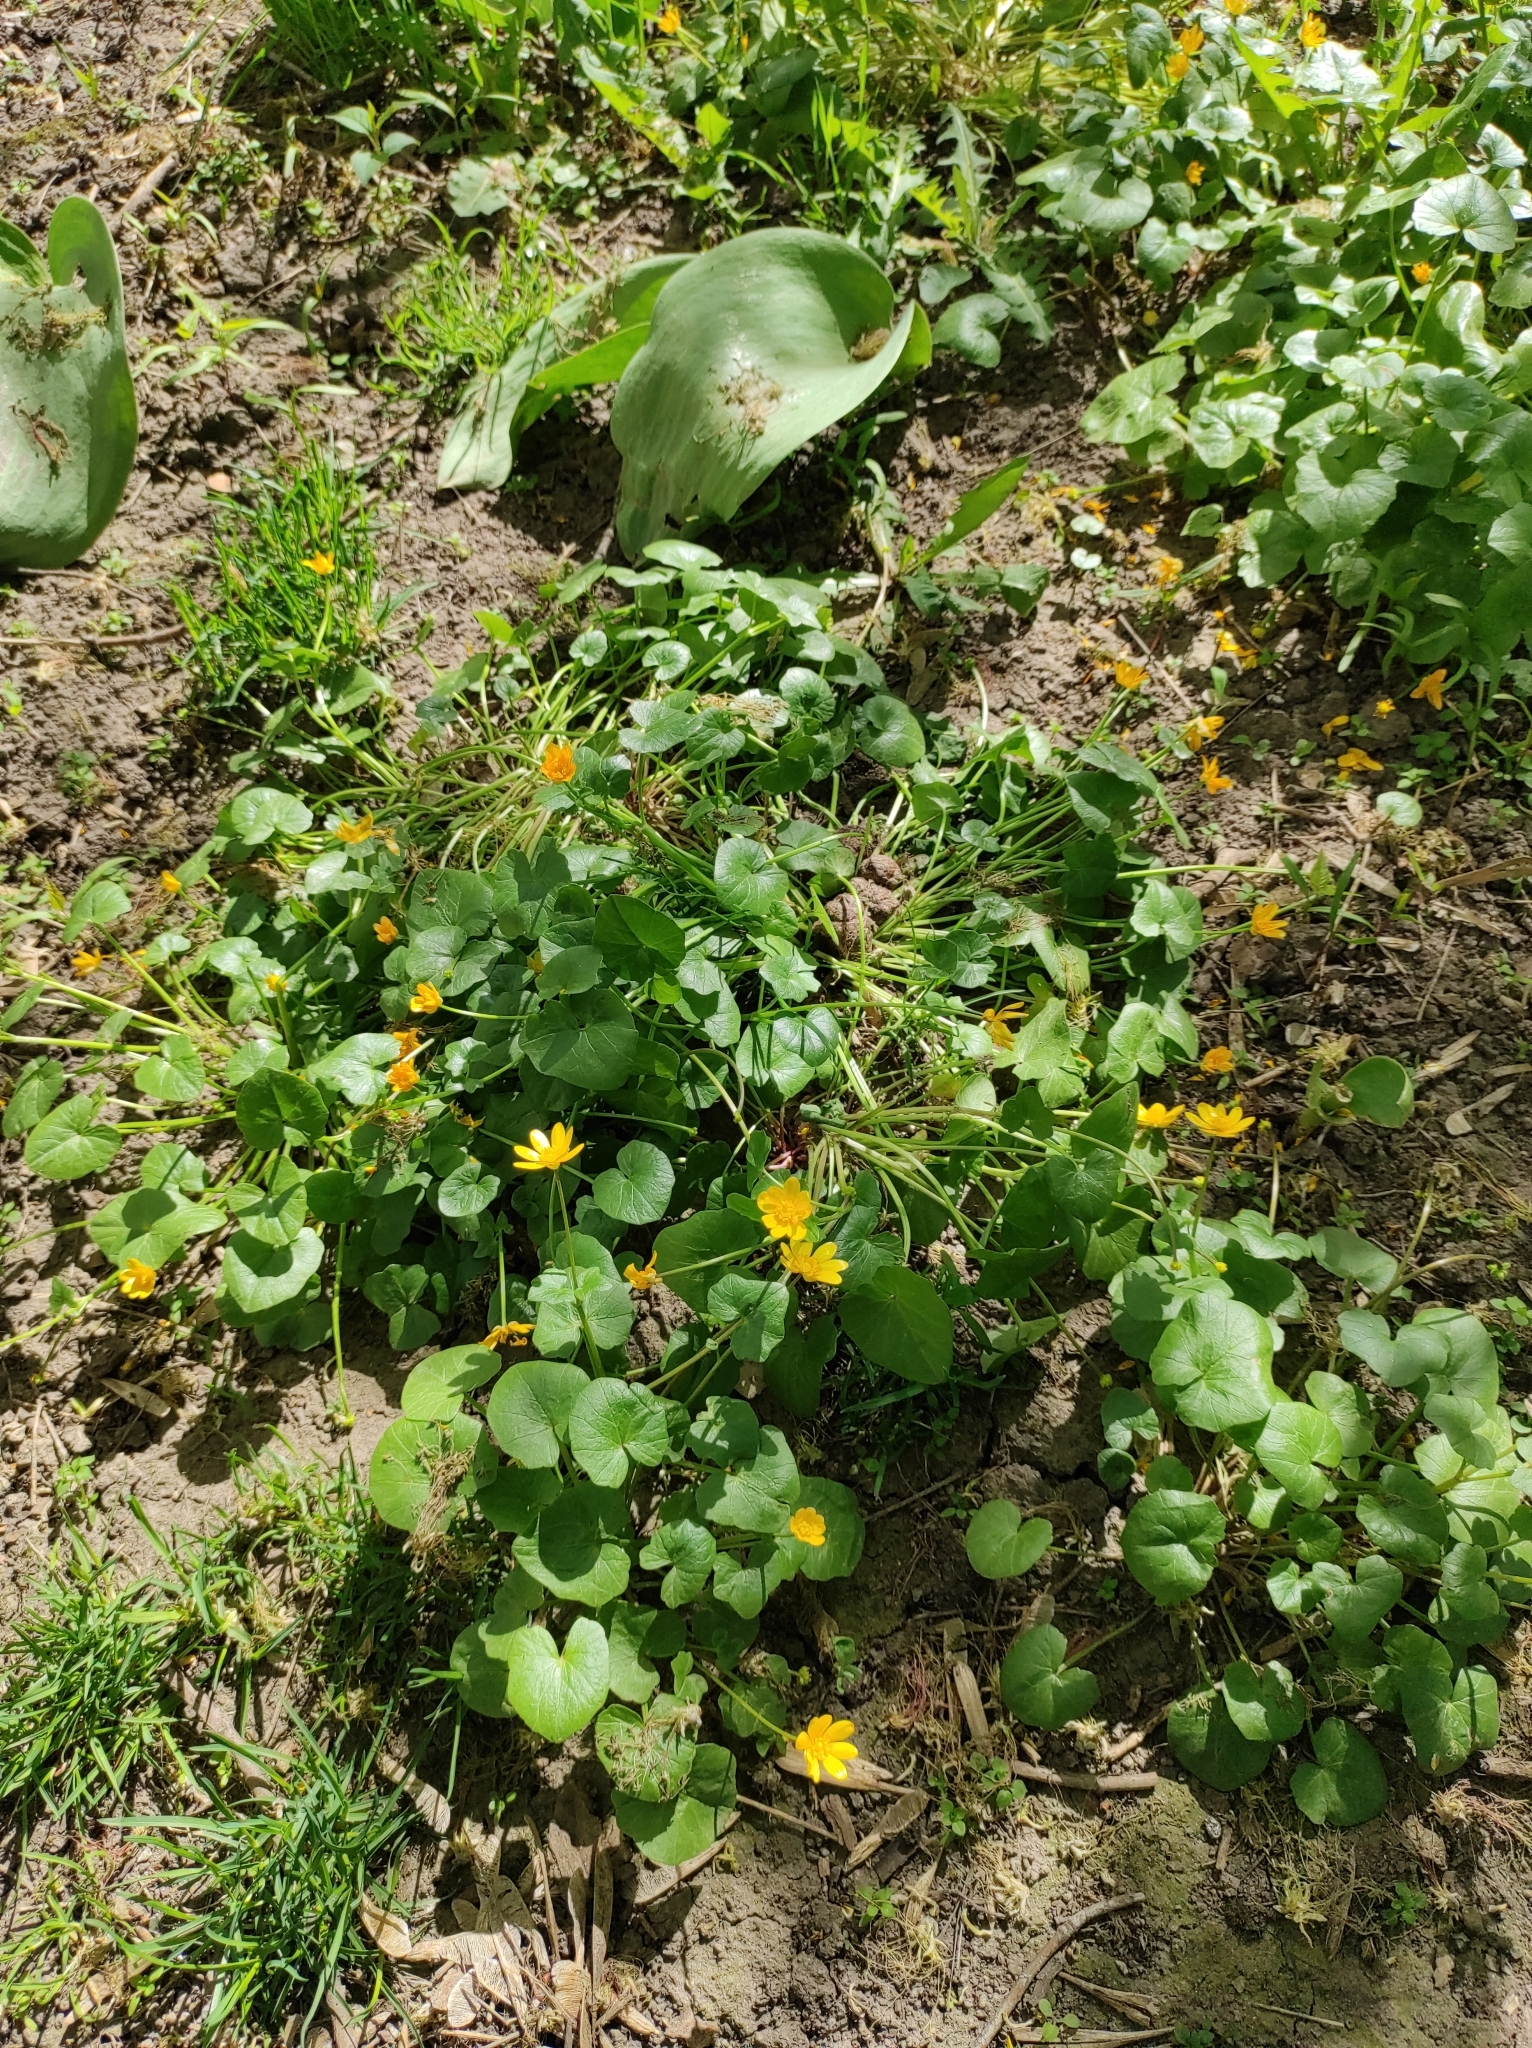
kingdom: Plantae
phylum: Tracheophyta
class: Magnoliopsida
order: Ranunculales
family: Ranunculaceae
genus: Ficaria
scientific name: Ficaria verna
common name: Lesser celandine
